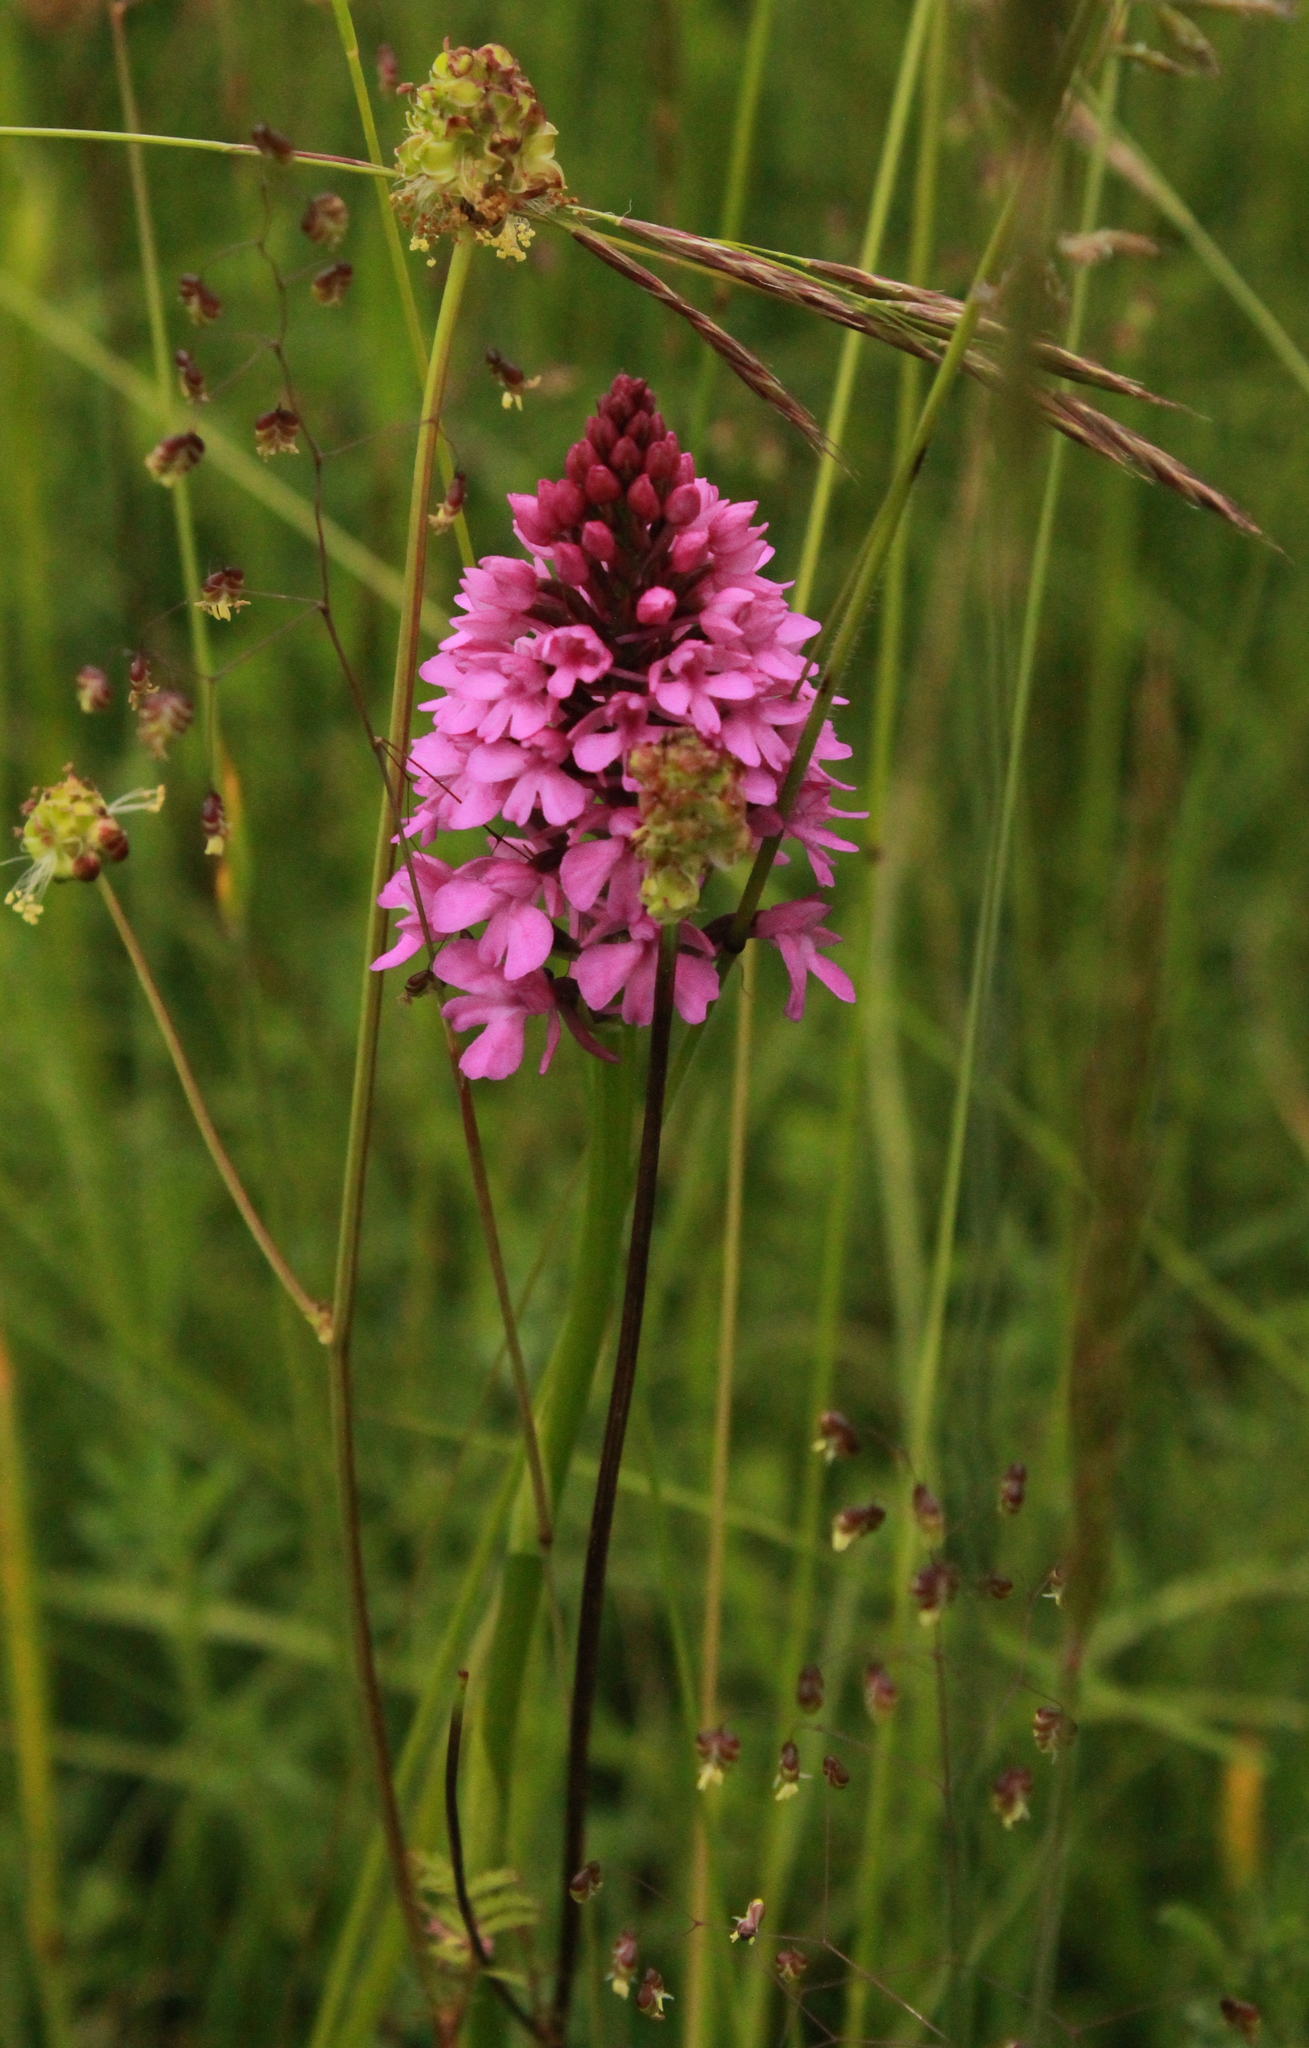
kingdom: Plantae
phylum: Tracheophyta
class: Liliopsida
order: Asparagales
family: Orchidaceae
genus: Anacamptis
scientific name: Anacamptis pyramidalis
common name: Pyramidal orchid
